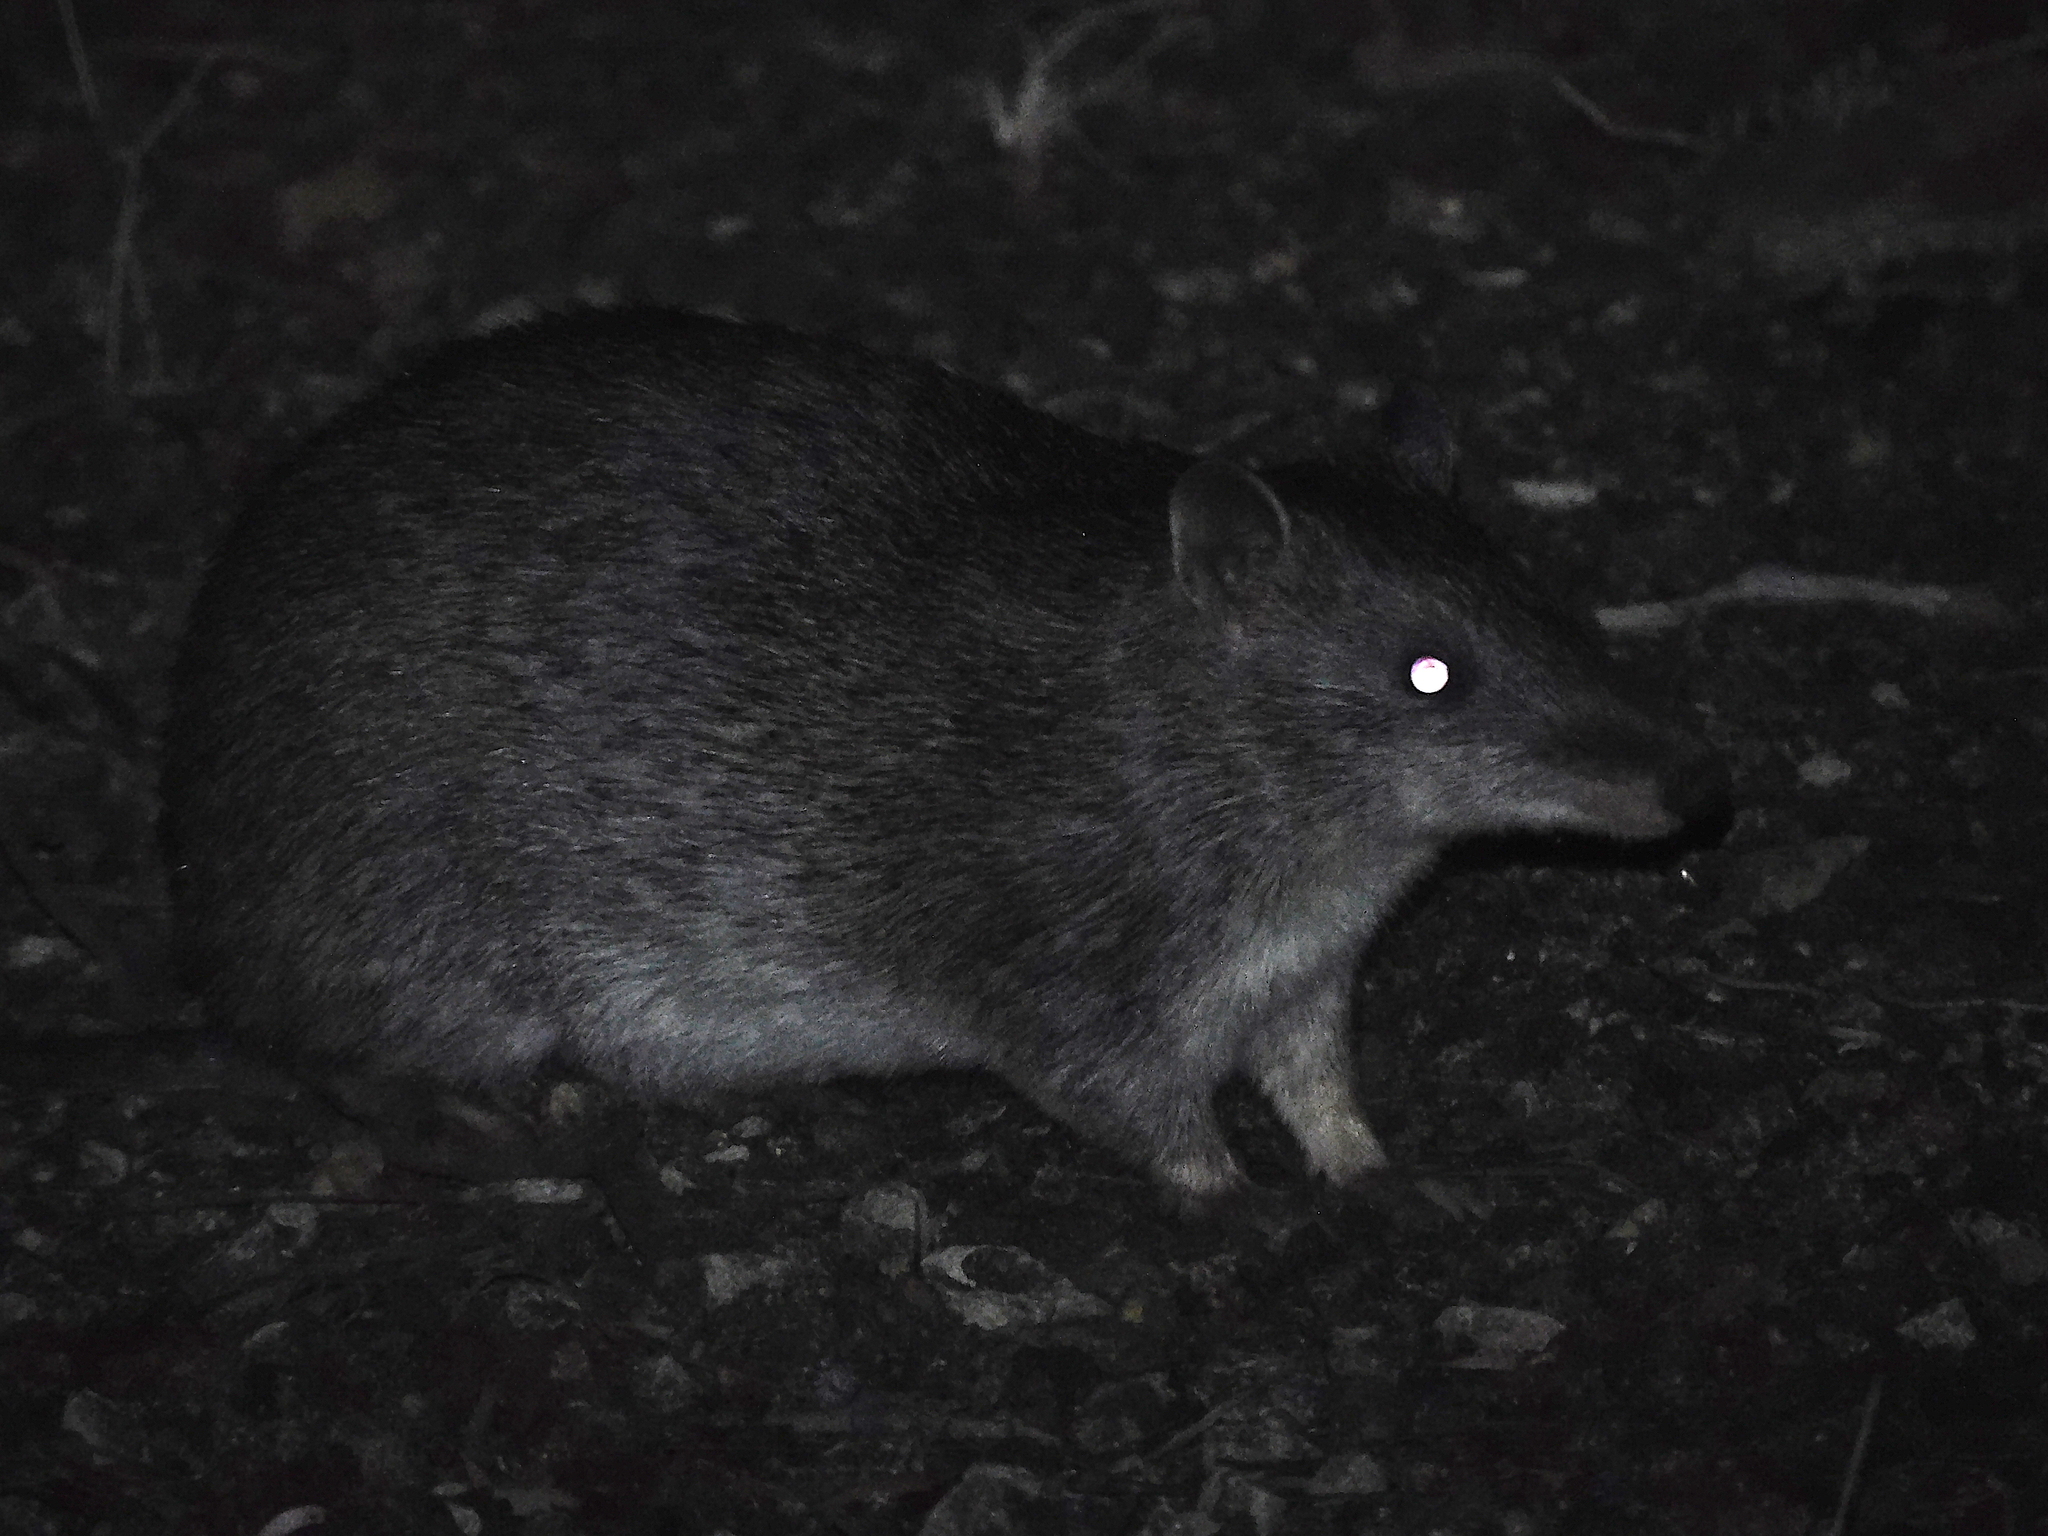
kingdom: Animalia
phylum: Chordata
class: Mammalia
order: Peramelemorphia
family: Peramelidae
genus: Isoodon
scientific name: Isoodon obesulus
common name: Southern brown bandicoot
